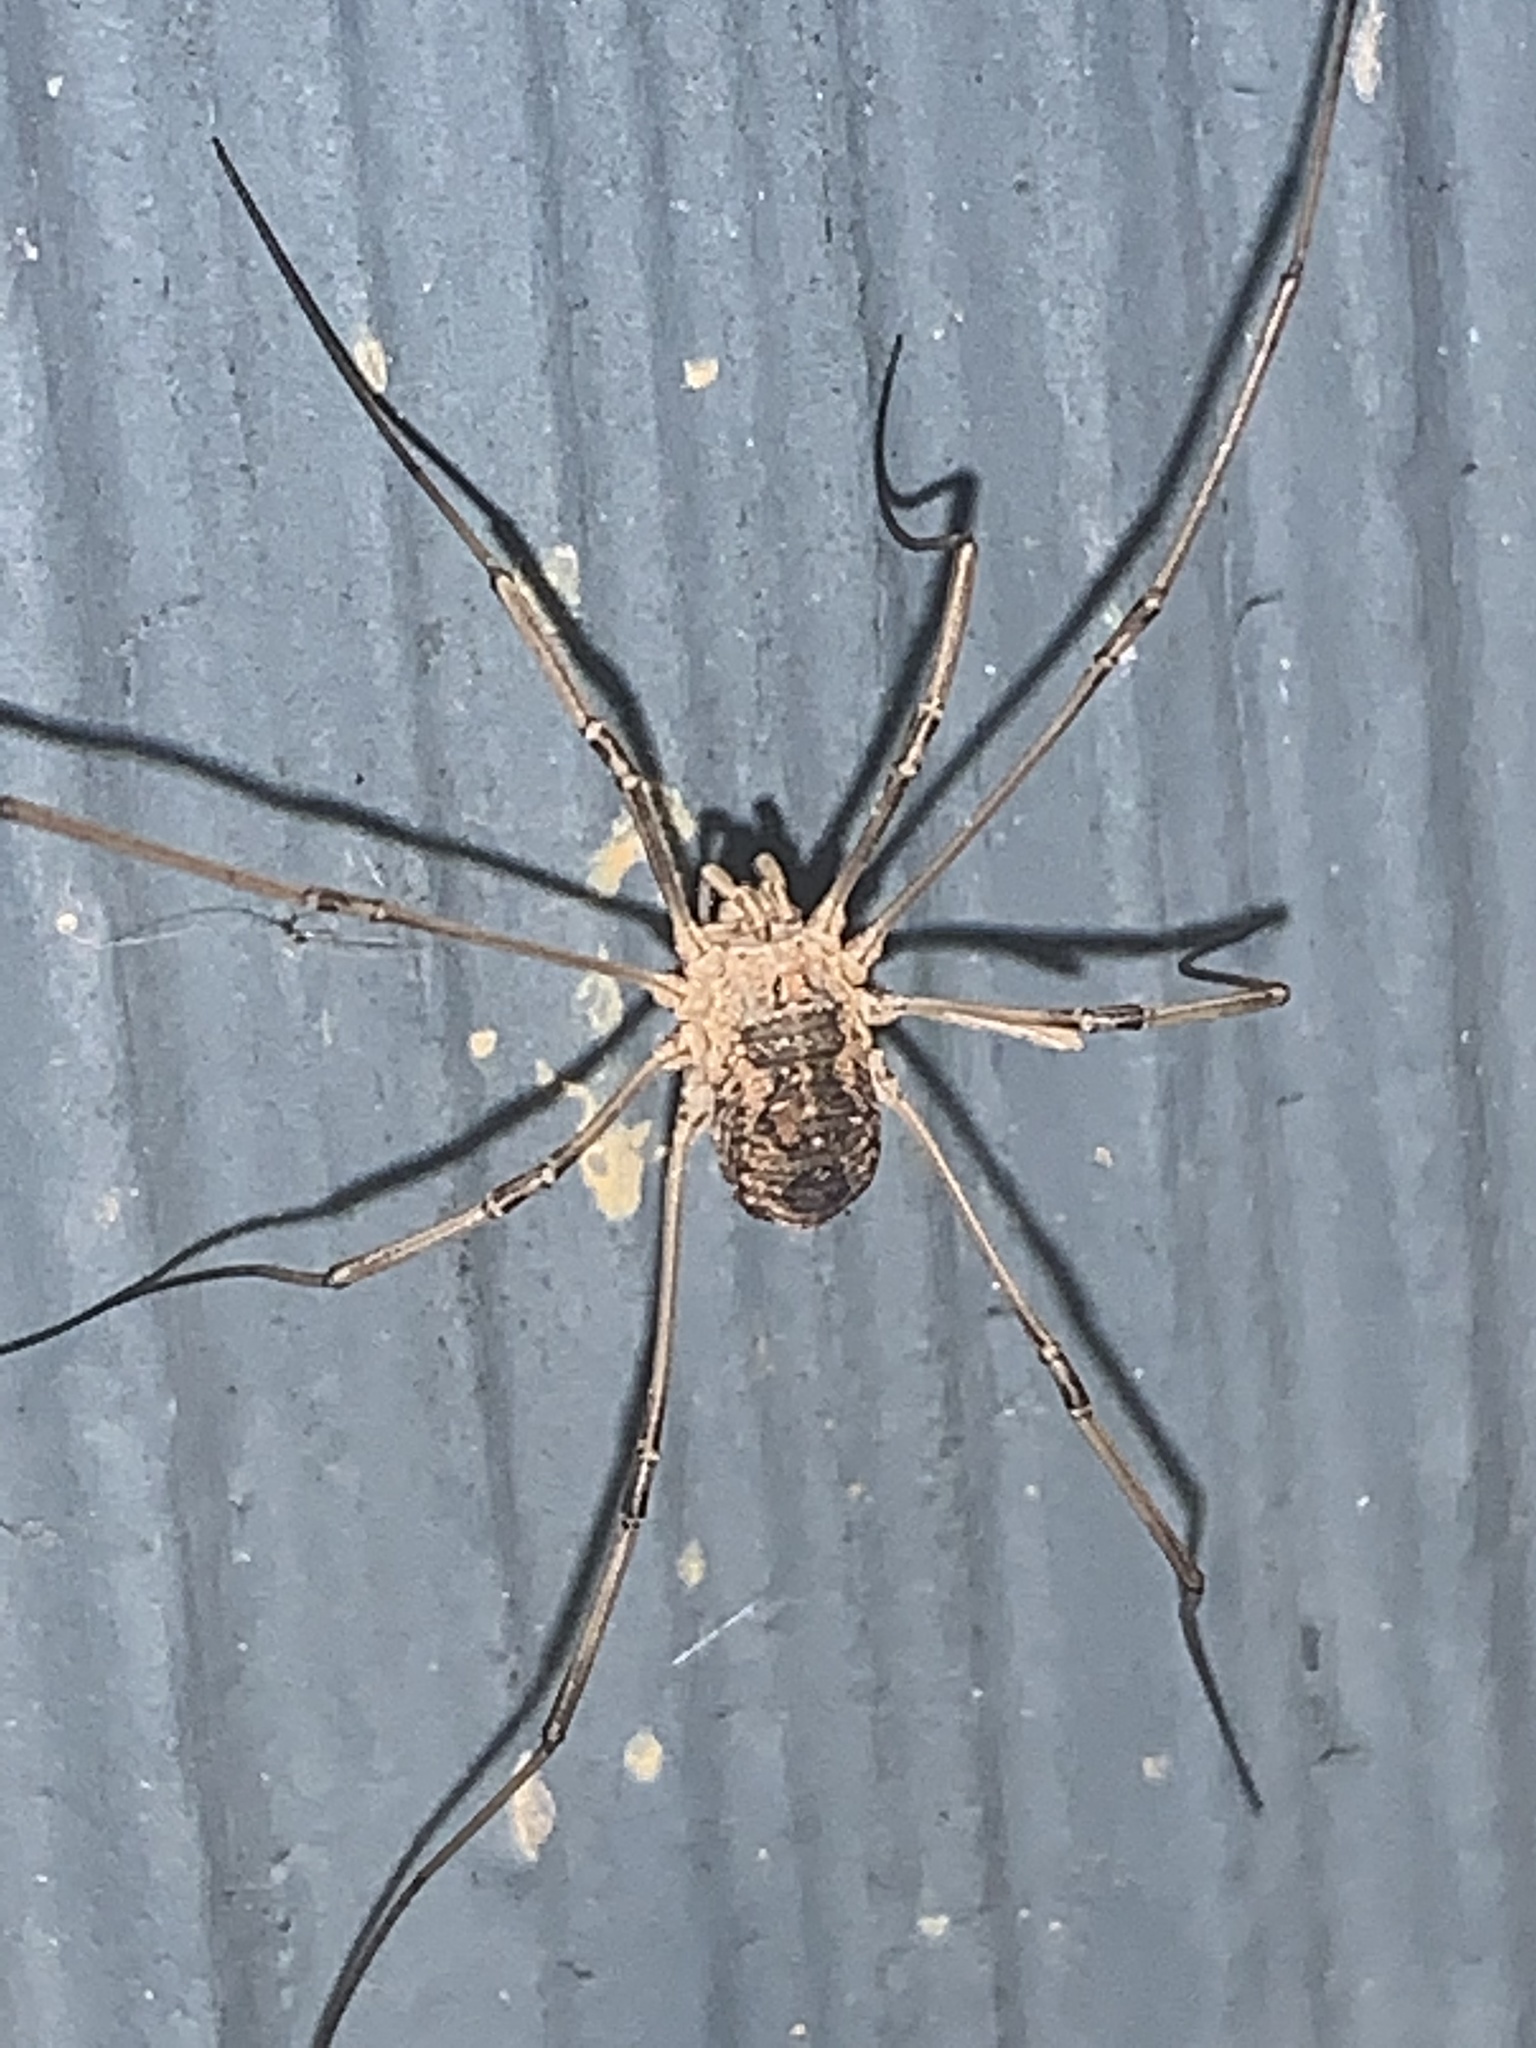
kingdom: Animalia
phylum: Arthropoda
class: Arachnida
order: Opiliones
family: Phalangiidae
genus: Phalangium
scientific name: Phalangium opilio
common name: Daddy longleg
